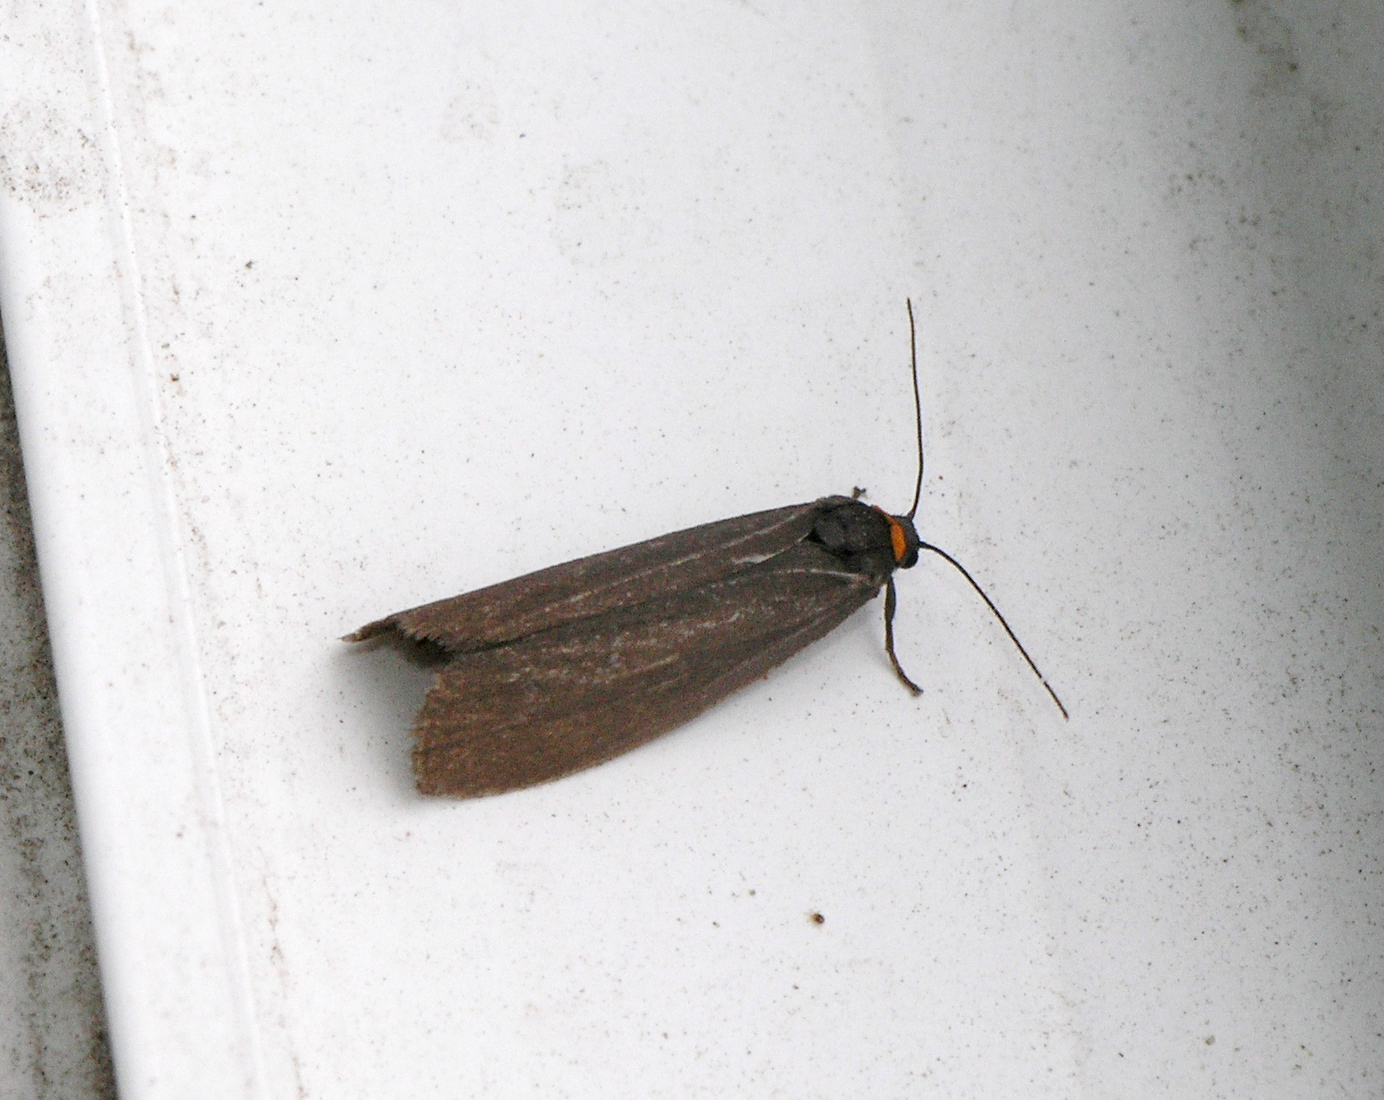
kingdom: Animalia
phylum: Arthropoda
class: Insecta
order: Lepidoptera
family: Erebidae
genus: Atolmis
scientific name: Atolmis rubricollis
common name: Red-necked footman
